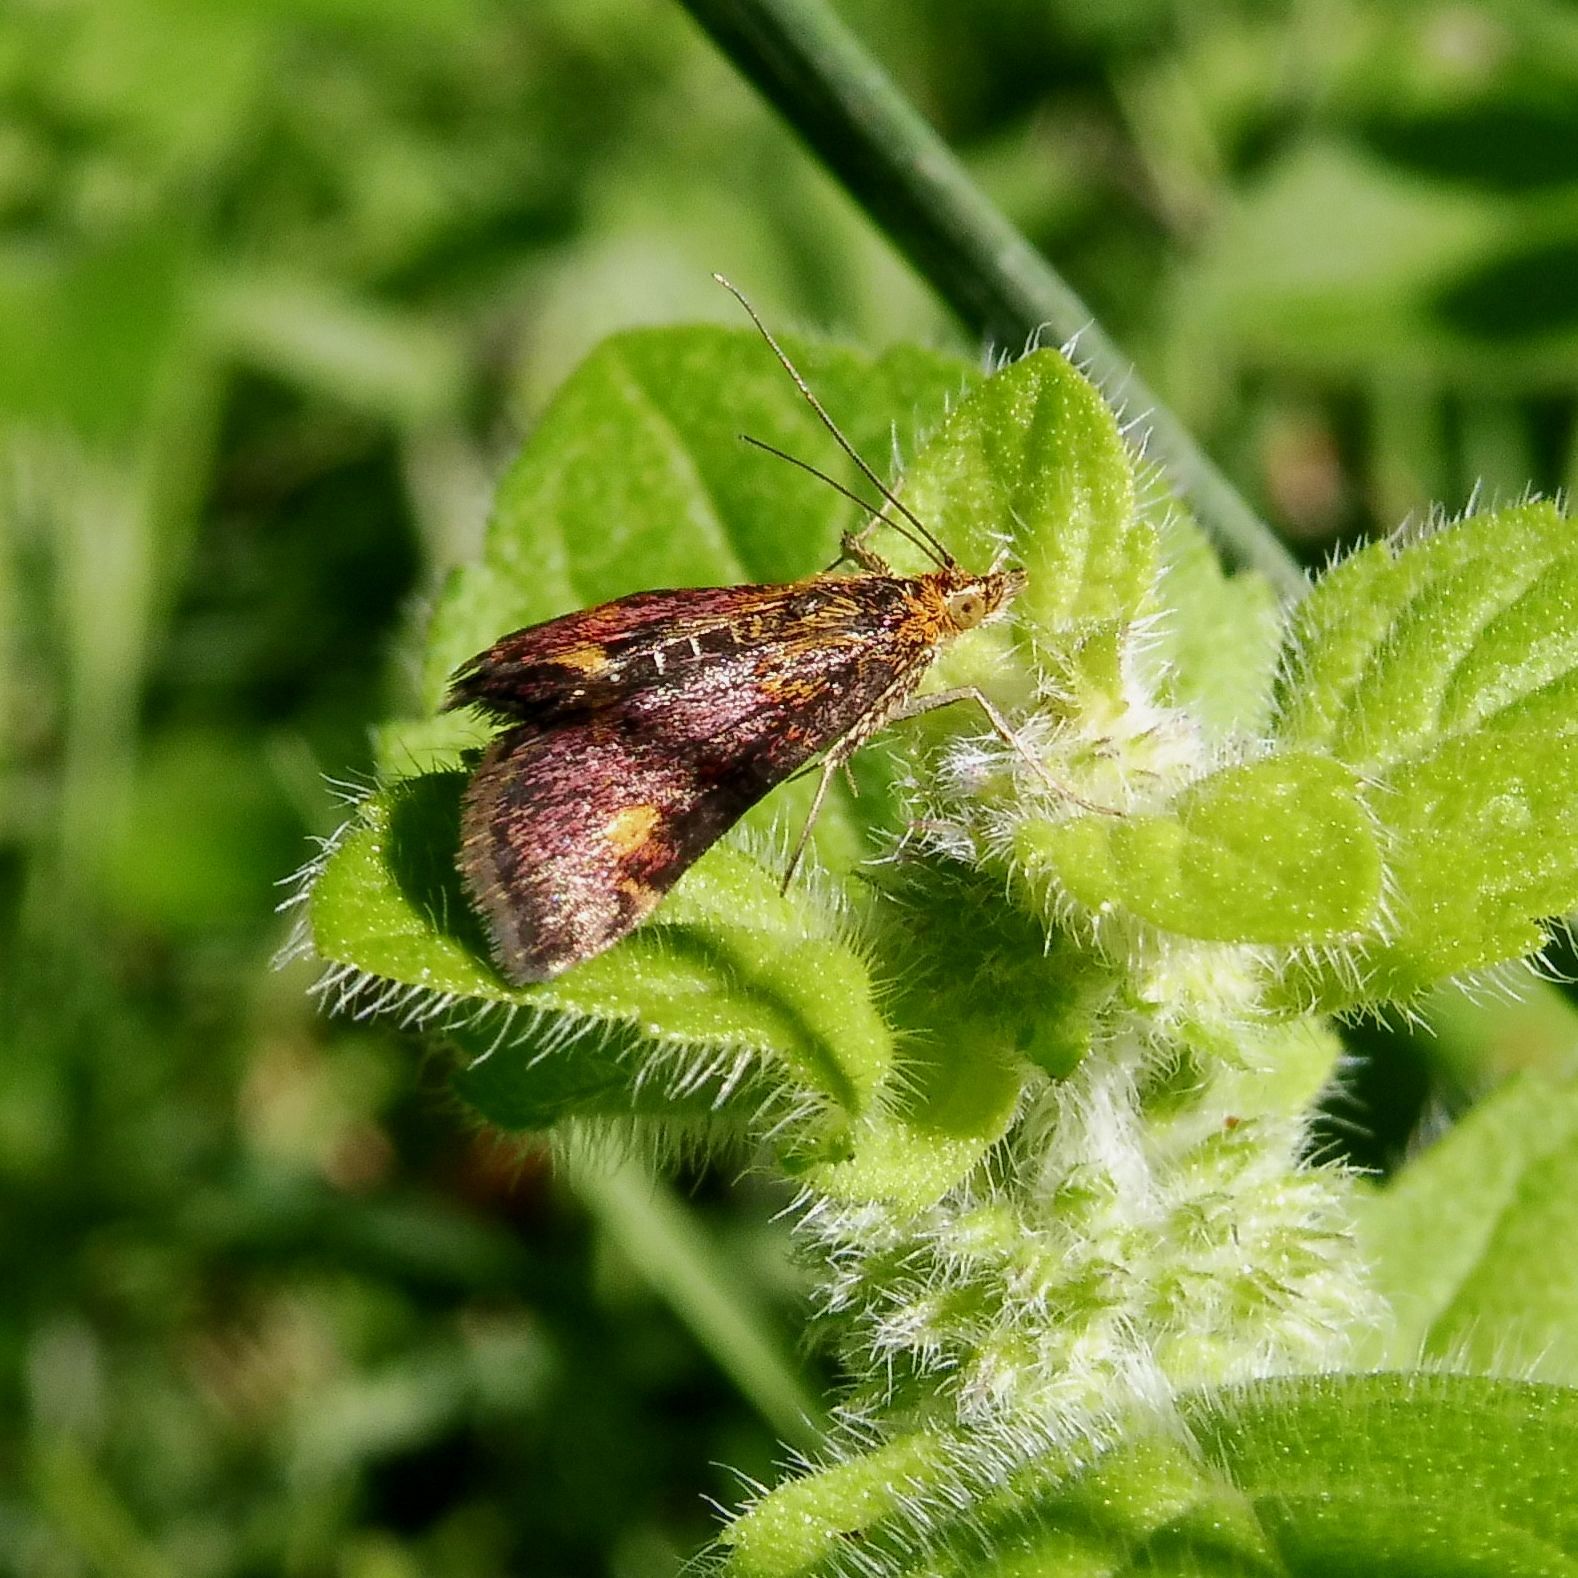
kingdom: Animalia
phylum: Arthropoda
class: Insecta
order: Lepidoptera
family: Crambidae
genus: Pyrausta
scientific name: Pyrausta aurata
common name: Small purple & gold
